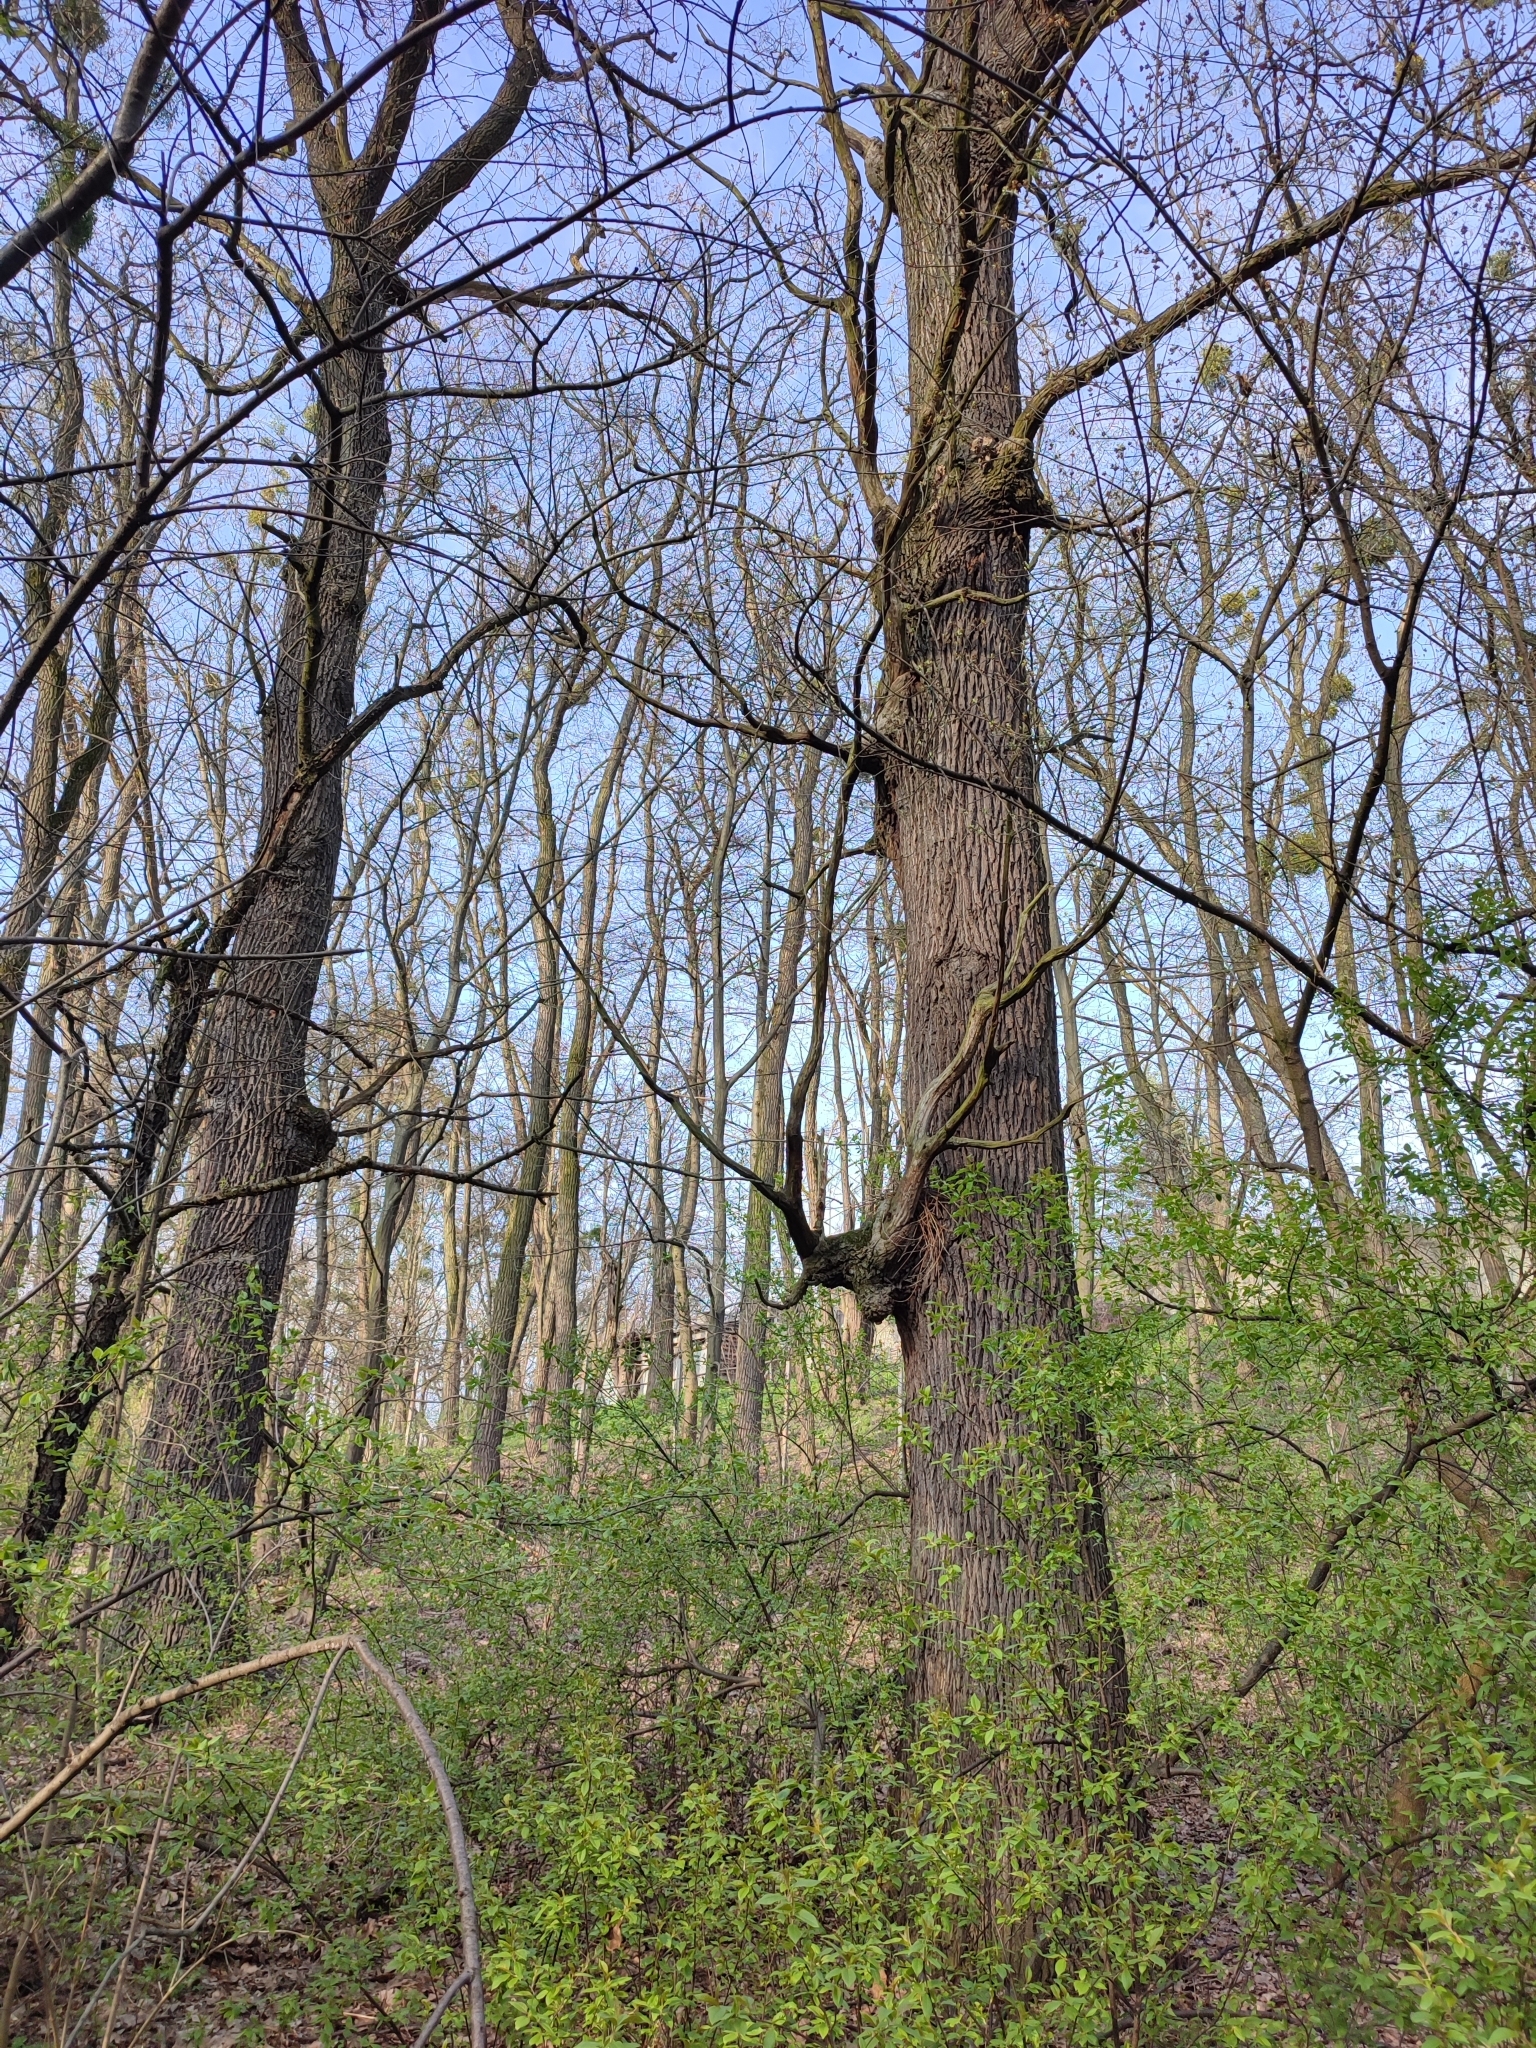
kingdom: Plantae
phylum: Tracheophyta
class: Magnoliopsida
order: Fagales
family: Fagaceae
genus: Quercus
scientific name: Quercus robur
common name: Pedunculate oak
